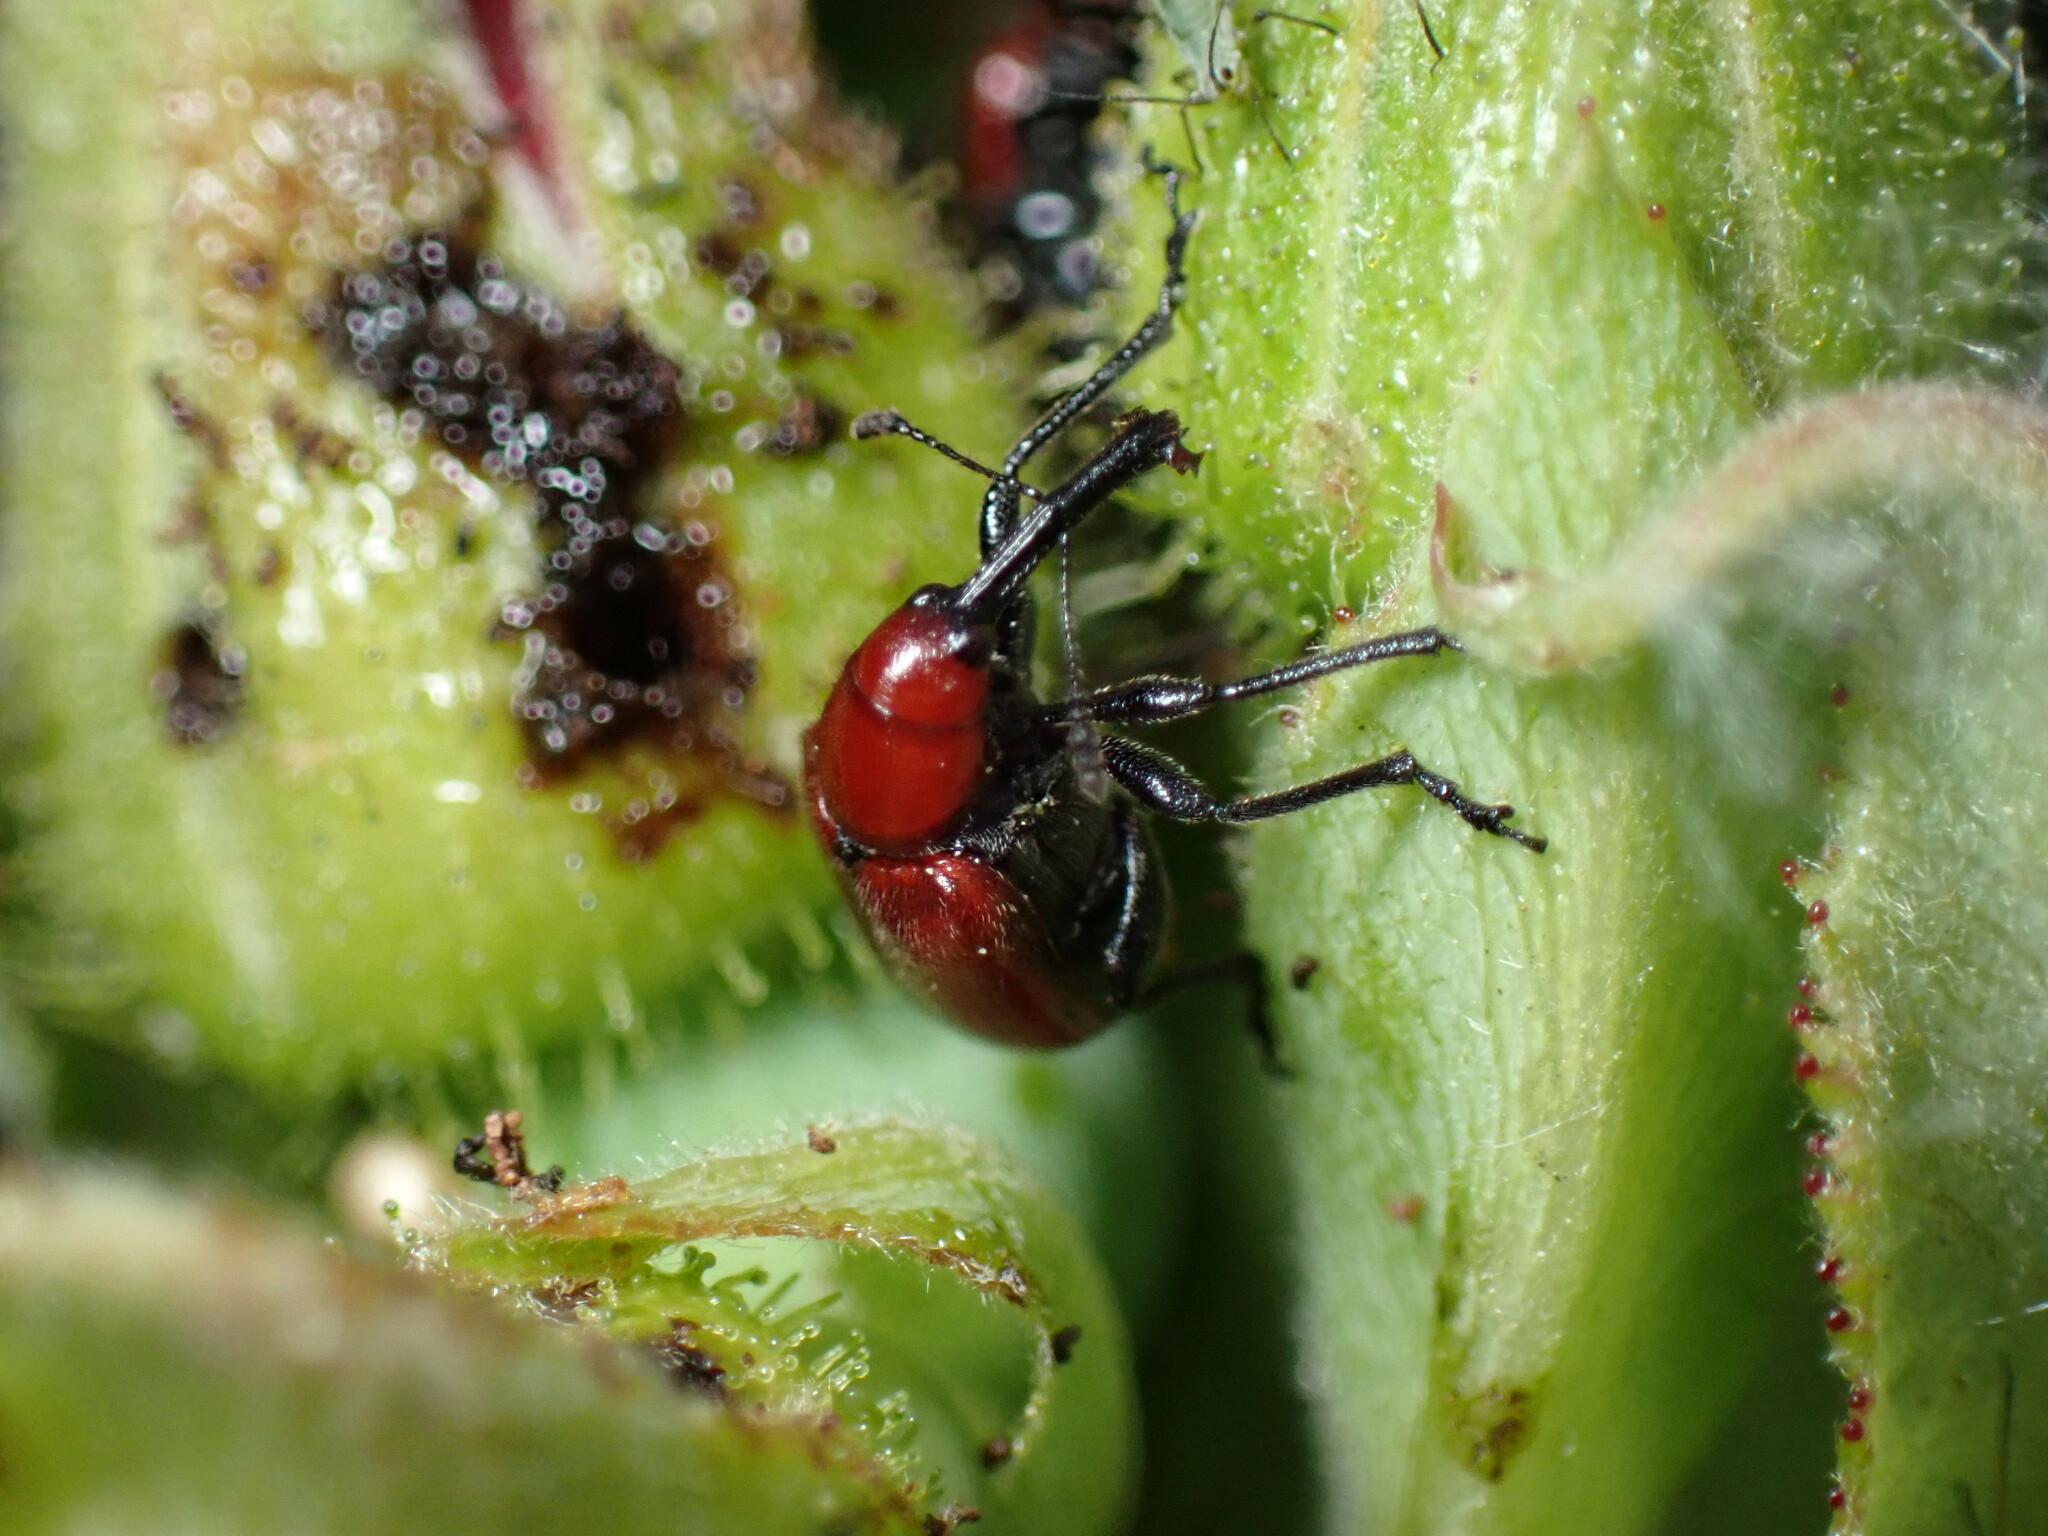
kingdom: Animalia
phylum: Arthropoda
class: Insecta
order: Coleoptera
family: Attelabidae
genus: Merhynchites
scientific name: Merhynchites bicolor
